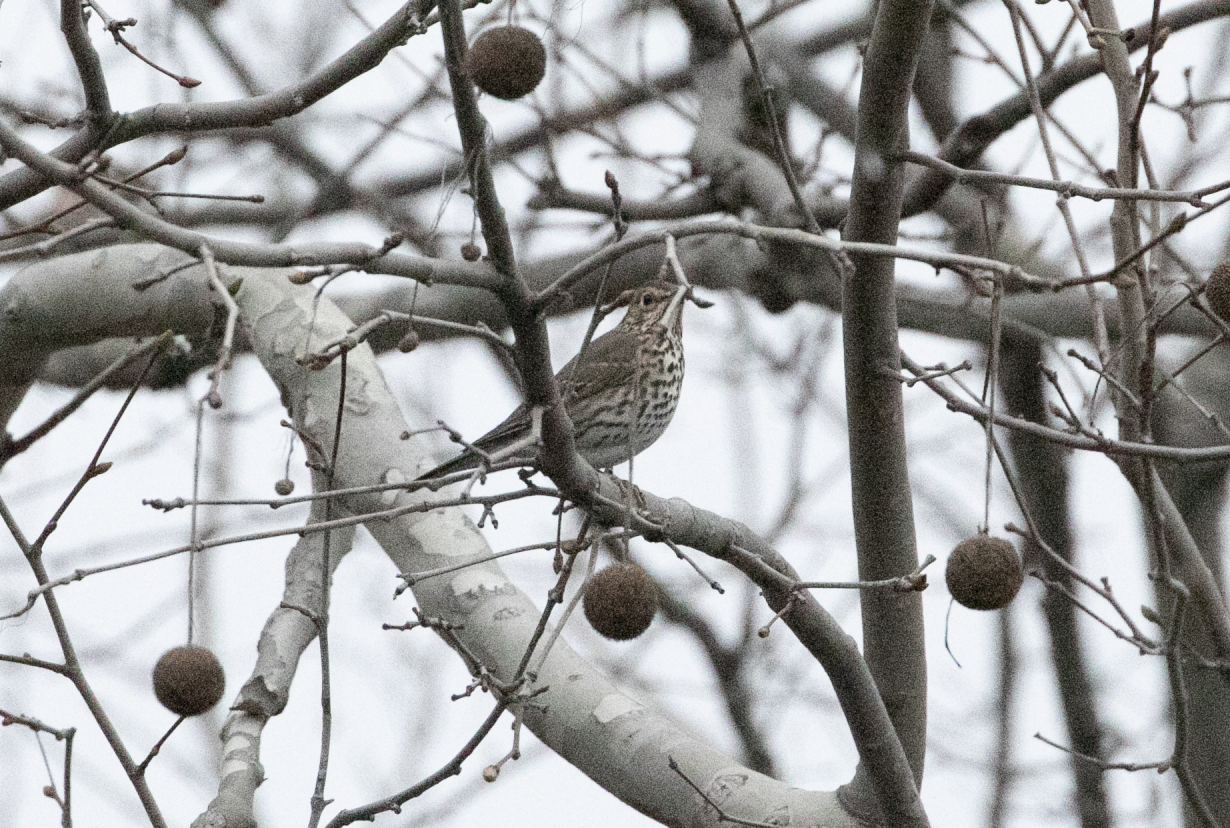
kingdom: Animalia
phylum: Chordata
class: Aves
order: Passeriformes
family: Turdidae
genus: Turdus
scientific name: Turdus philomelos
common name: Song thrush
